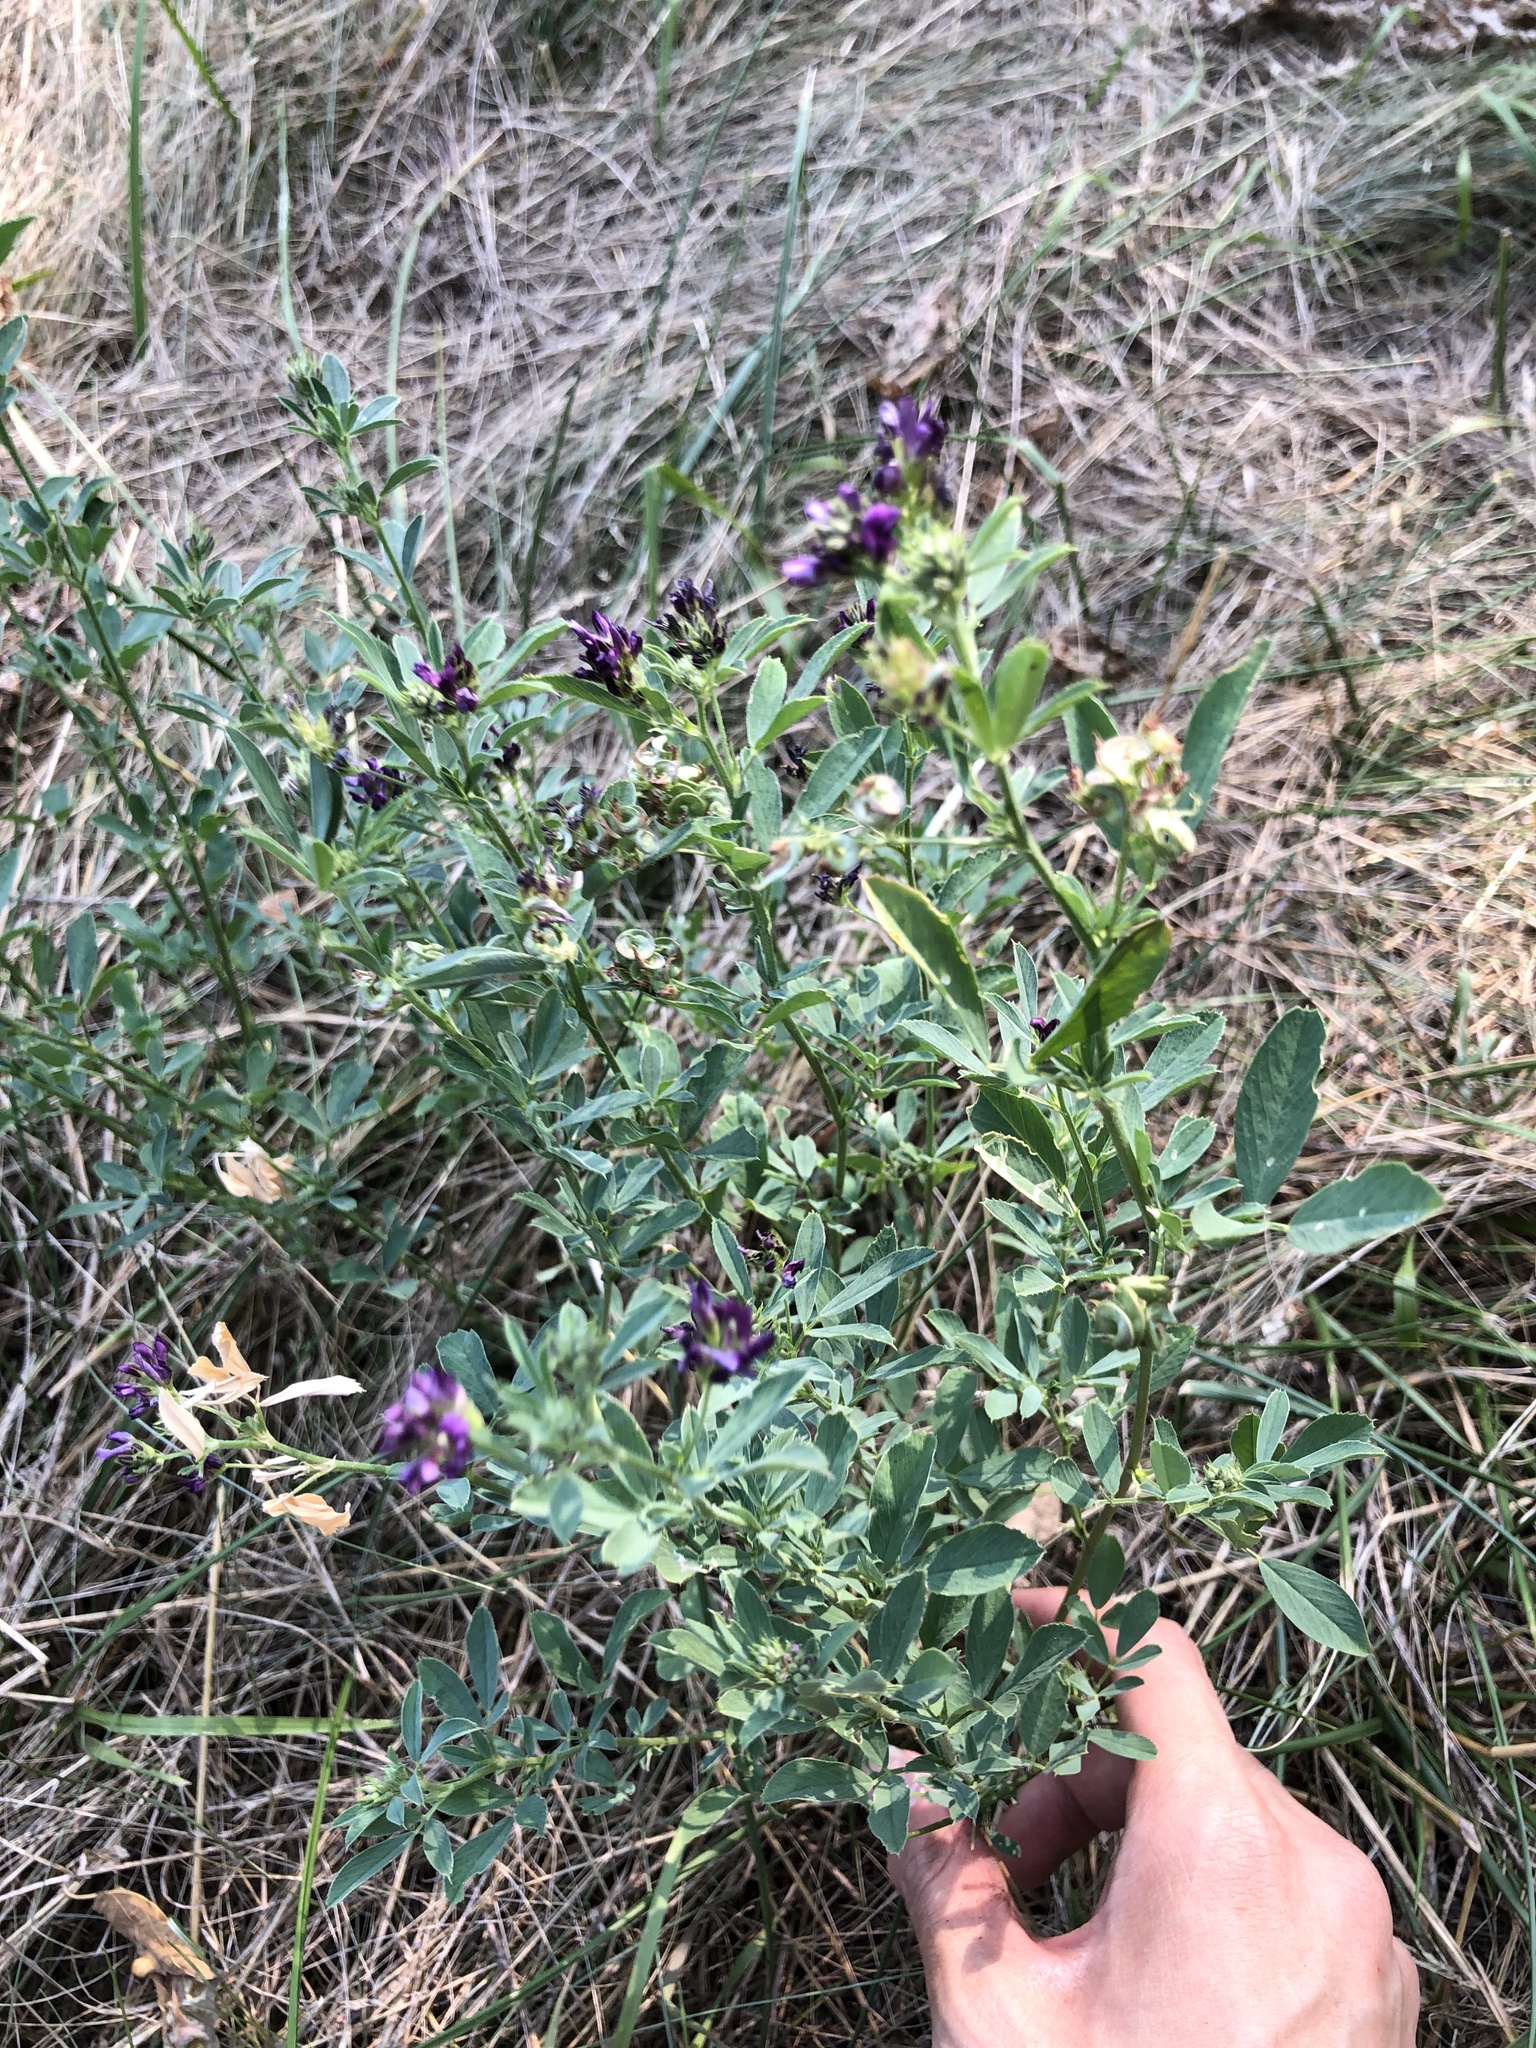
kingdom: Plantae
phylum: Tracheophyta
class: Magnoliopsida
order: Fabales
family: Fabaceae
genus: Medicago
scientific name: Medicago sativa
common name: Alfalfa
